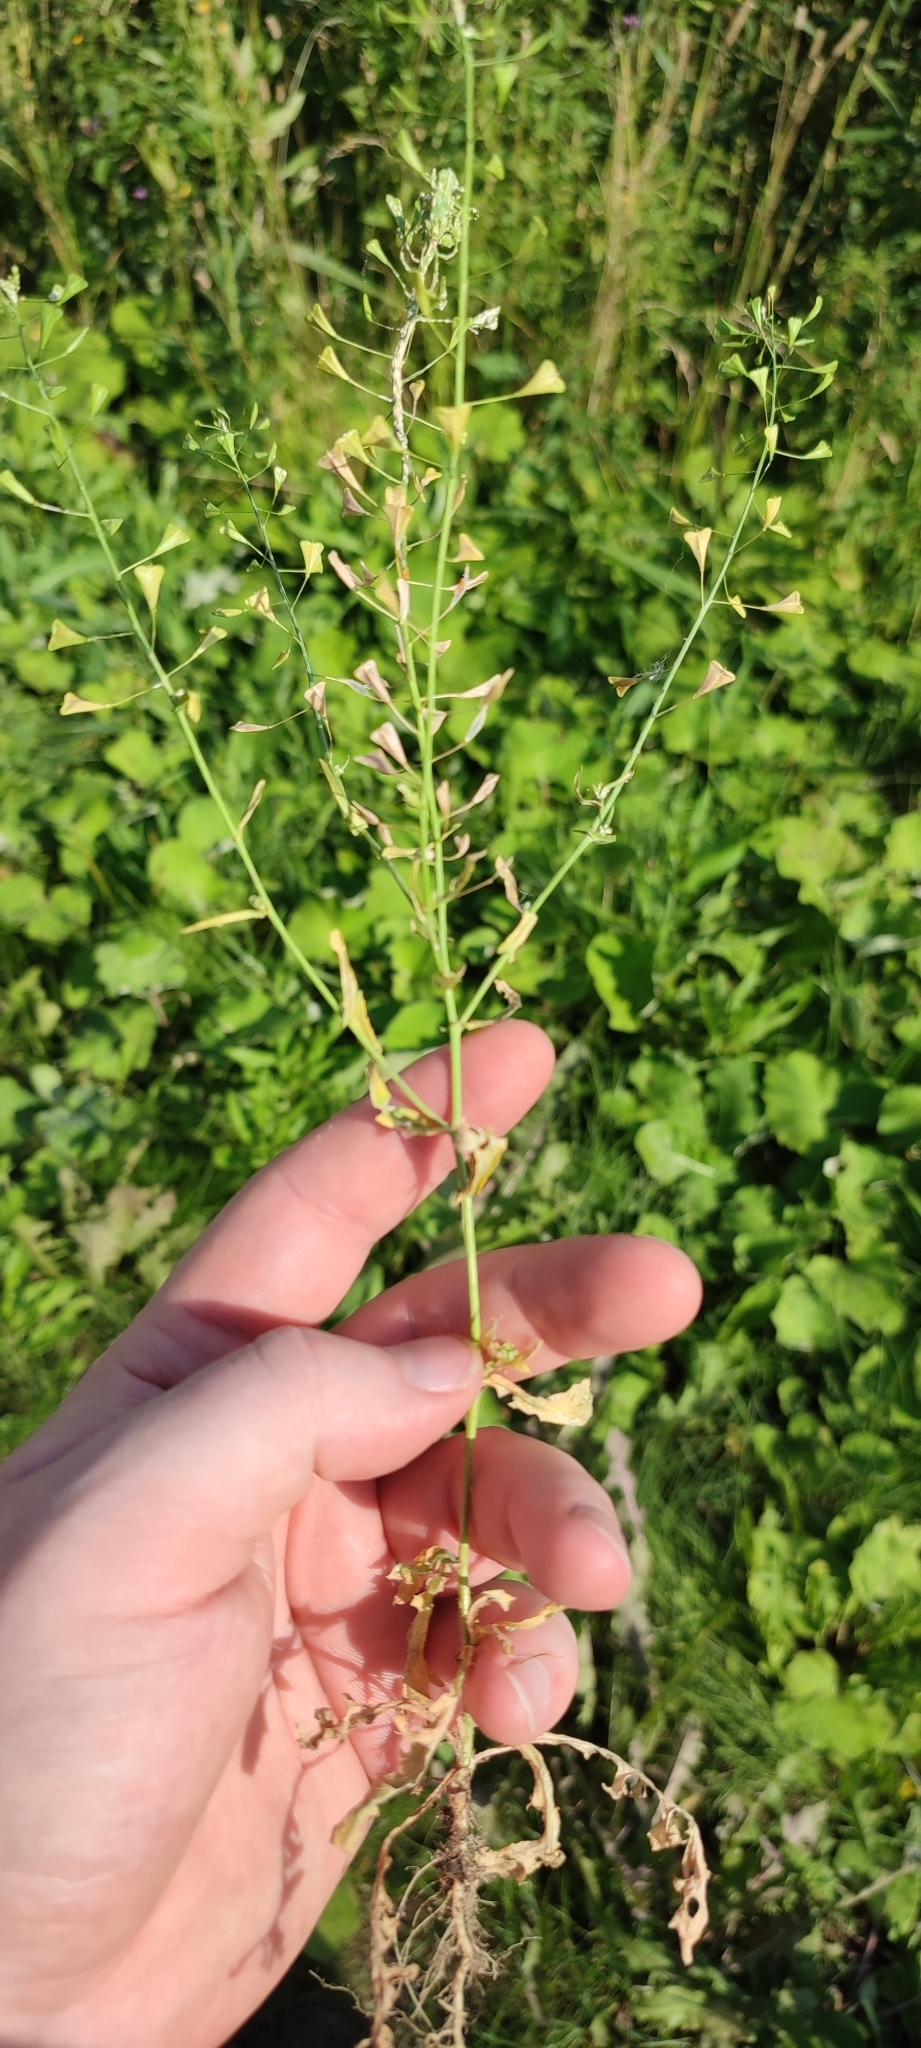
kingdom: Plantae
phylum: Tracheophyta
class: Magnoliopsida
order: Brassicales
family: Brassicaceae
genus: Capsella
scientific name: Capsella bursa-pastoris
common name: Shepherd's purse
